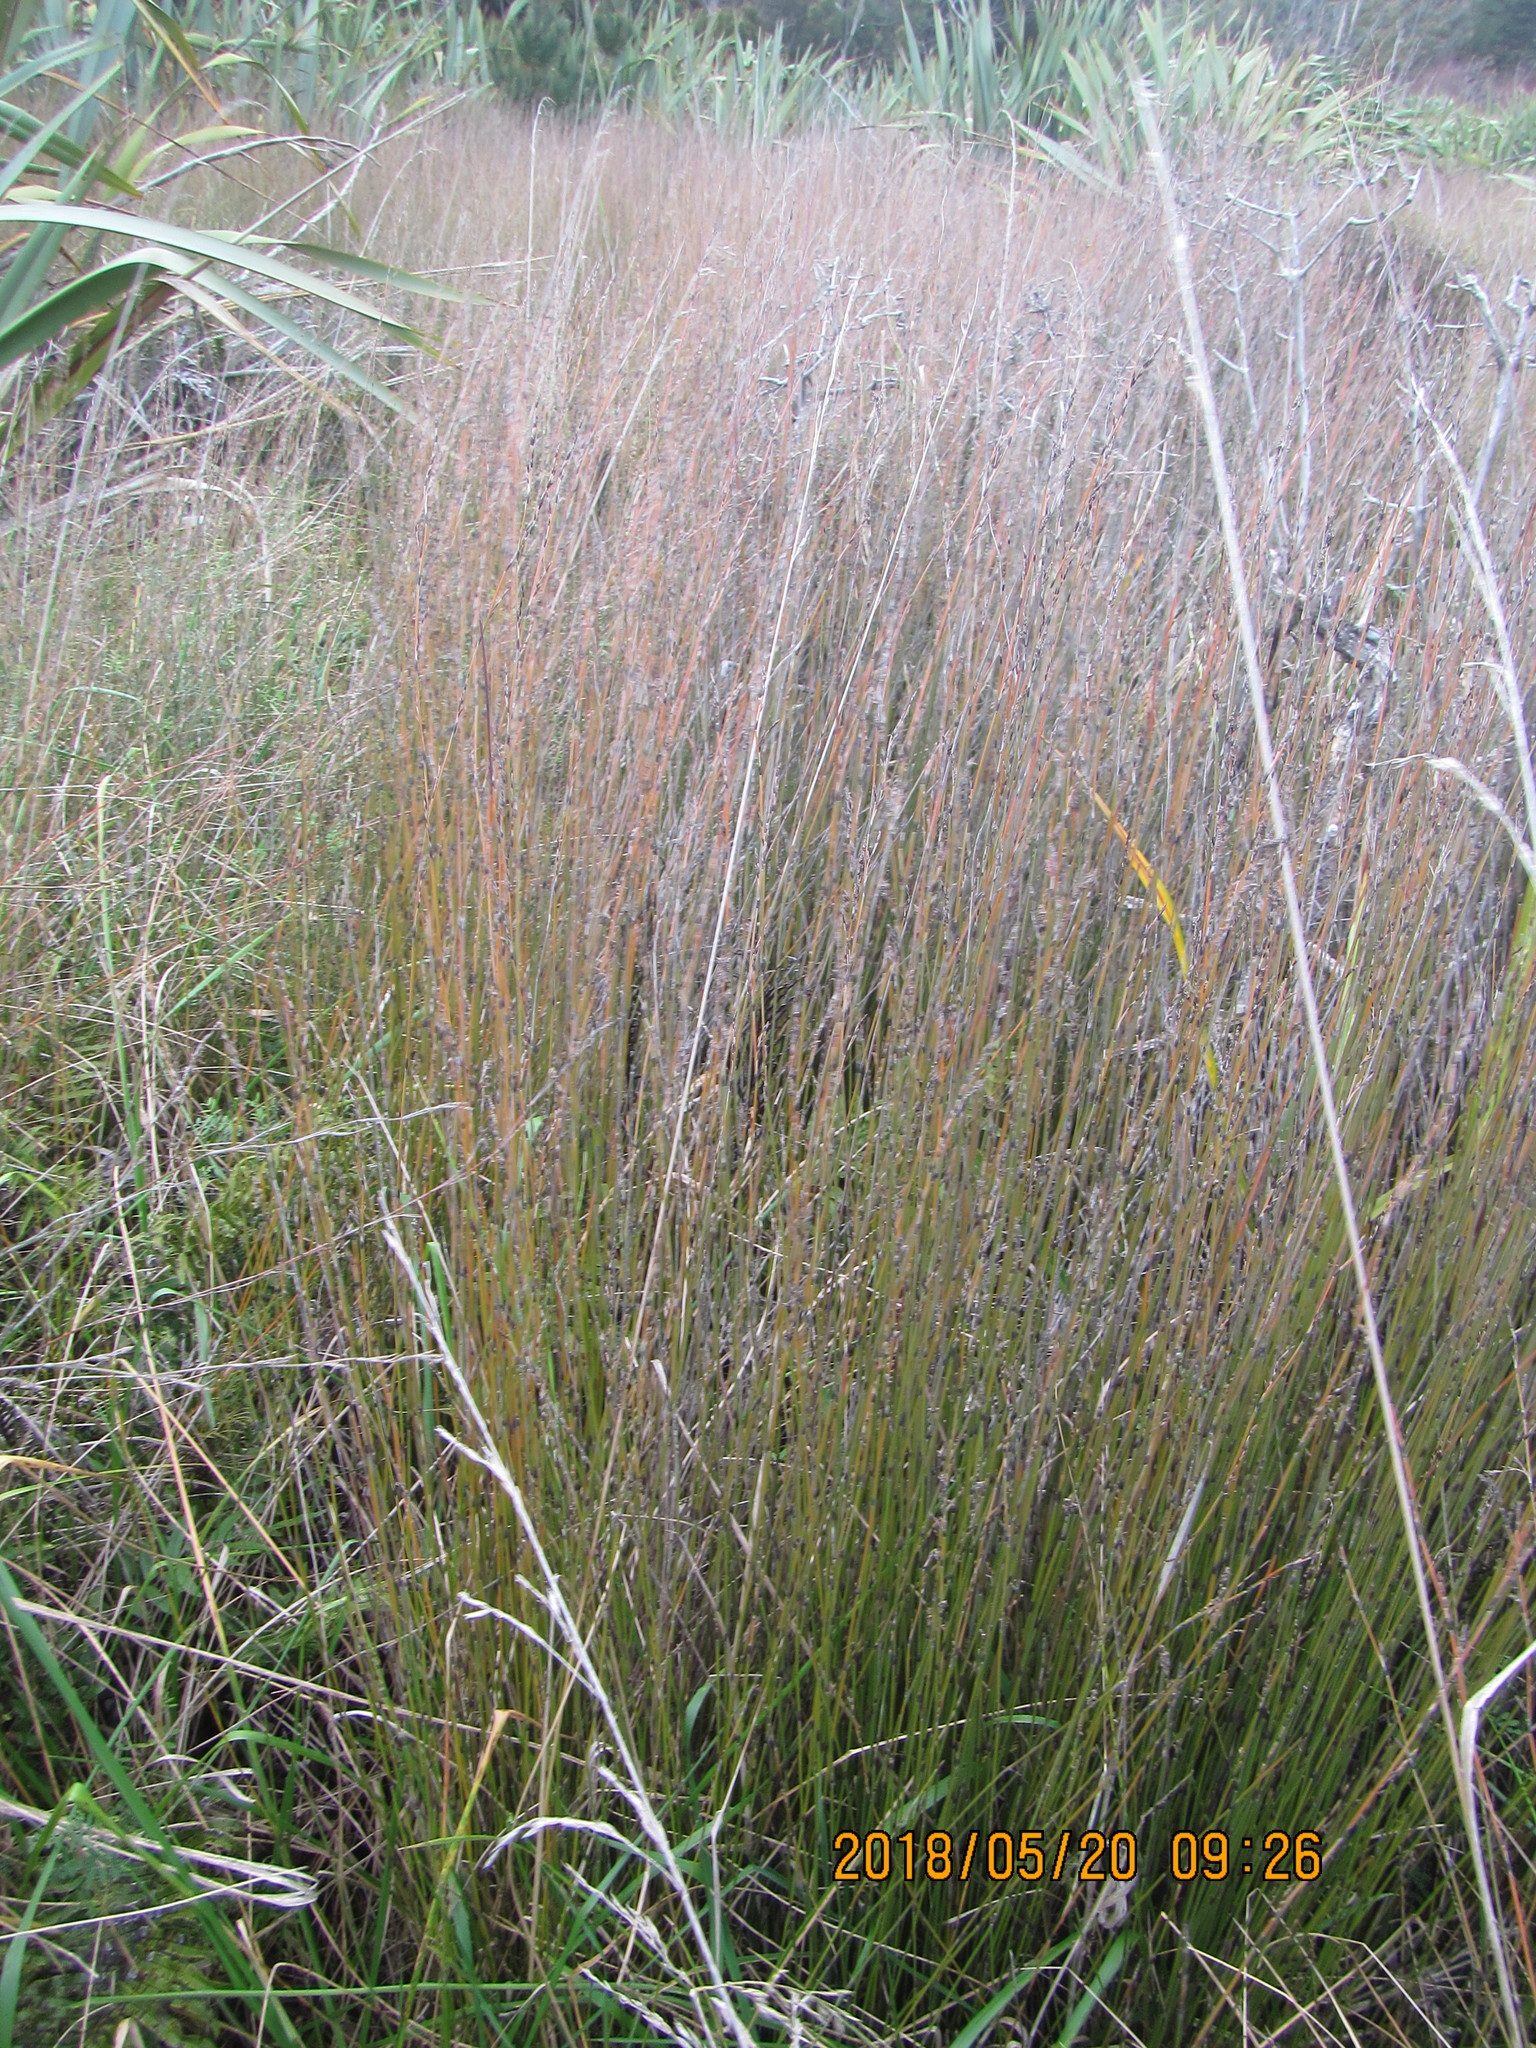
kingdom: Plantae
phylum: Tracheophyta
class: Liliopsida
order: Poales
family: Restionaceae
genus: Apodasmia
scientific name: Apodasmia similis
